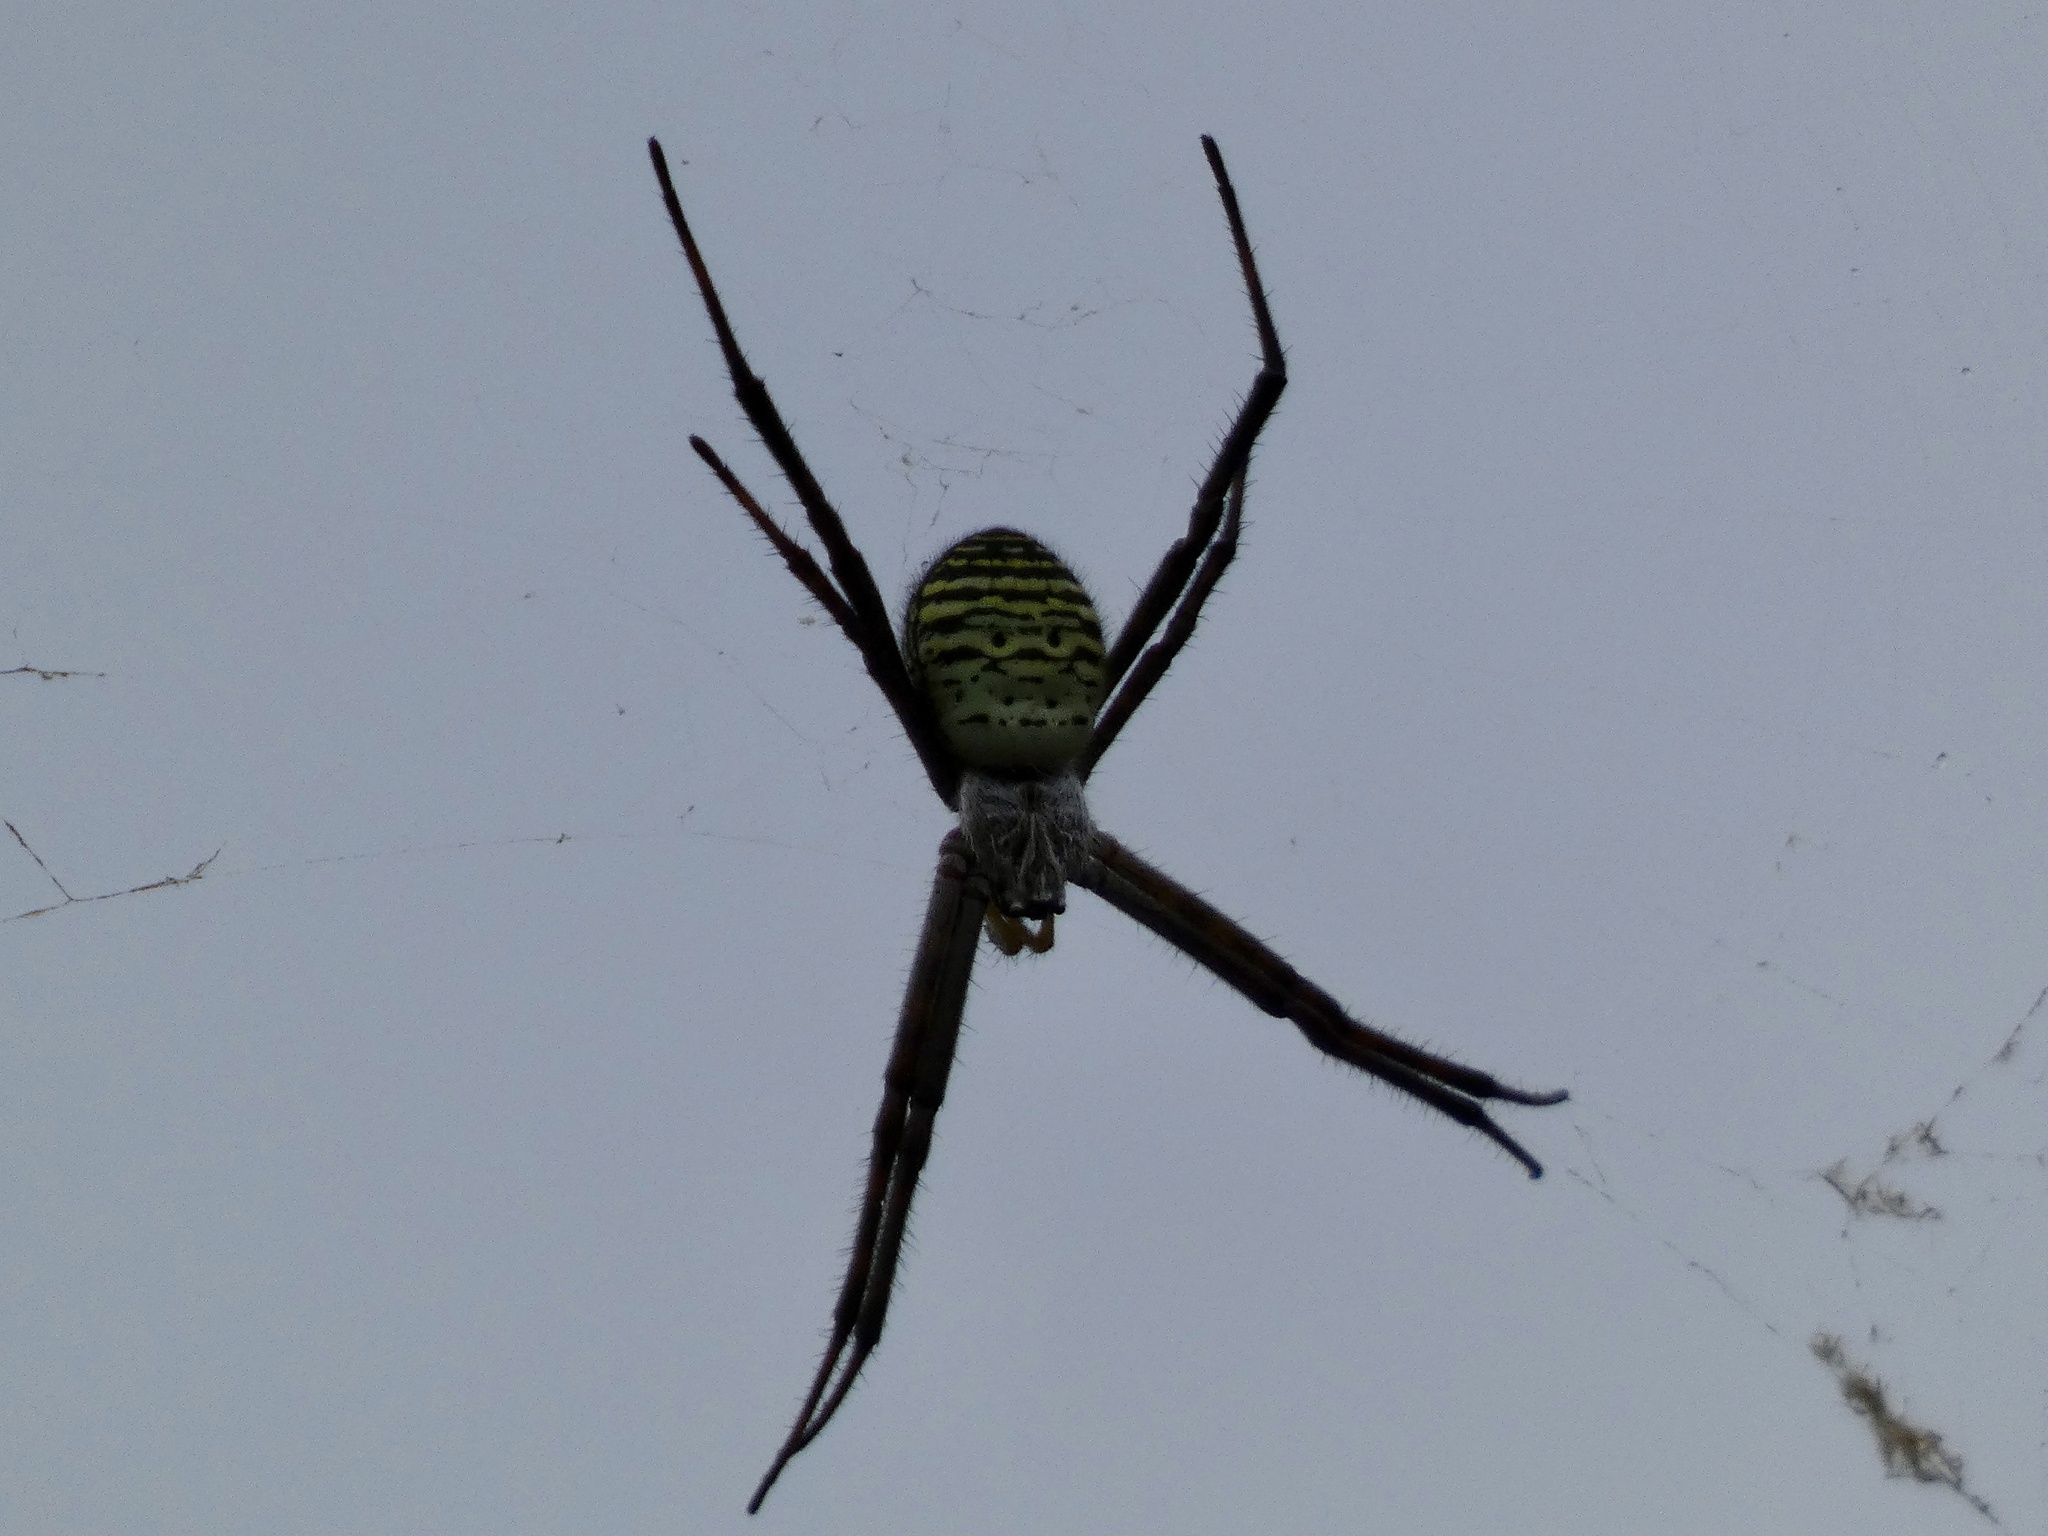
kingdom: Animalia
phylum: Arthropoda
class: Arachnida
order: Araneae
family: Araneidae
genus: Argiope
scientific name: Argiope trifasciata
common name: Banded garden spider
